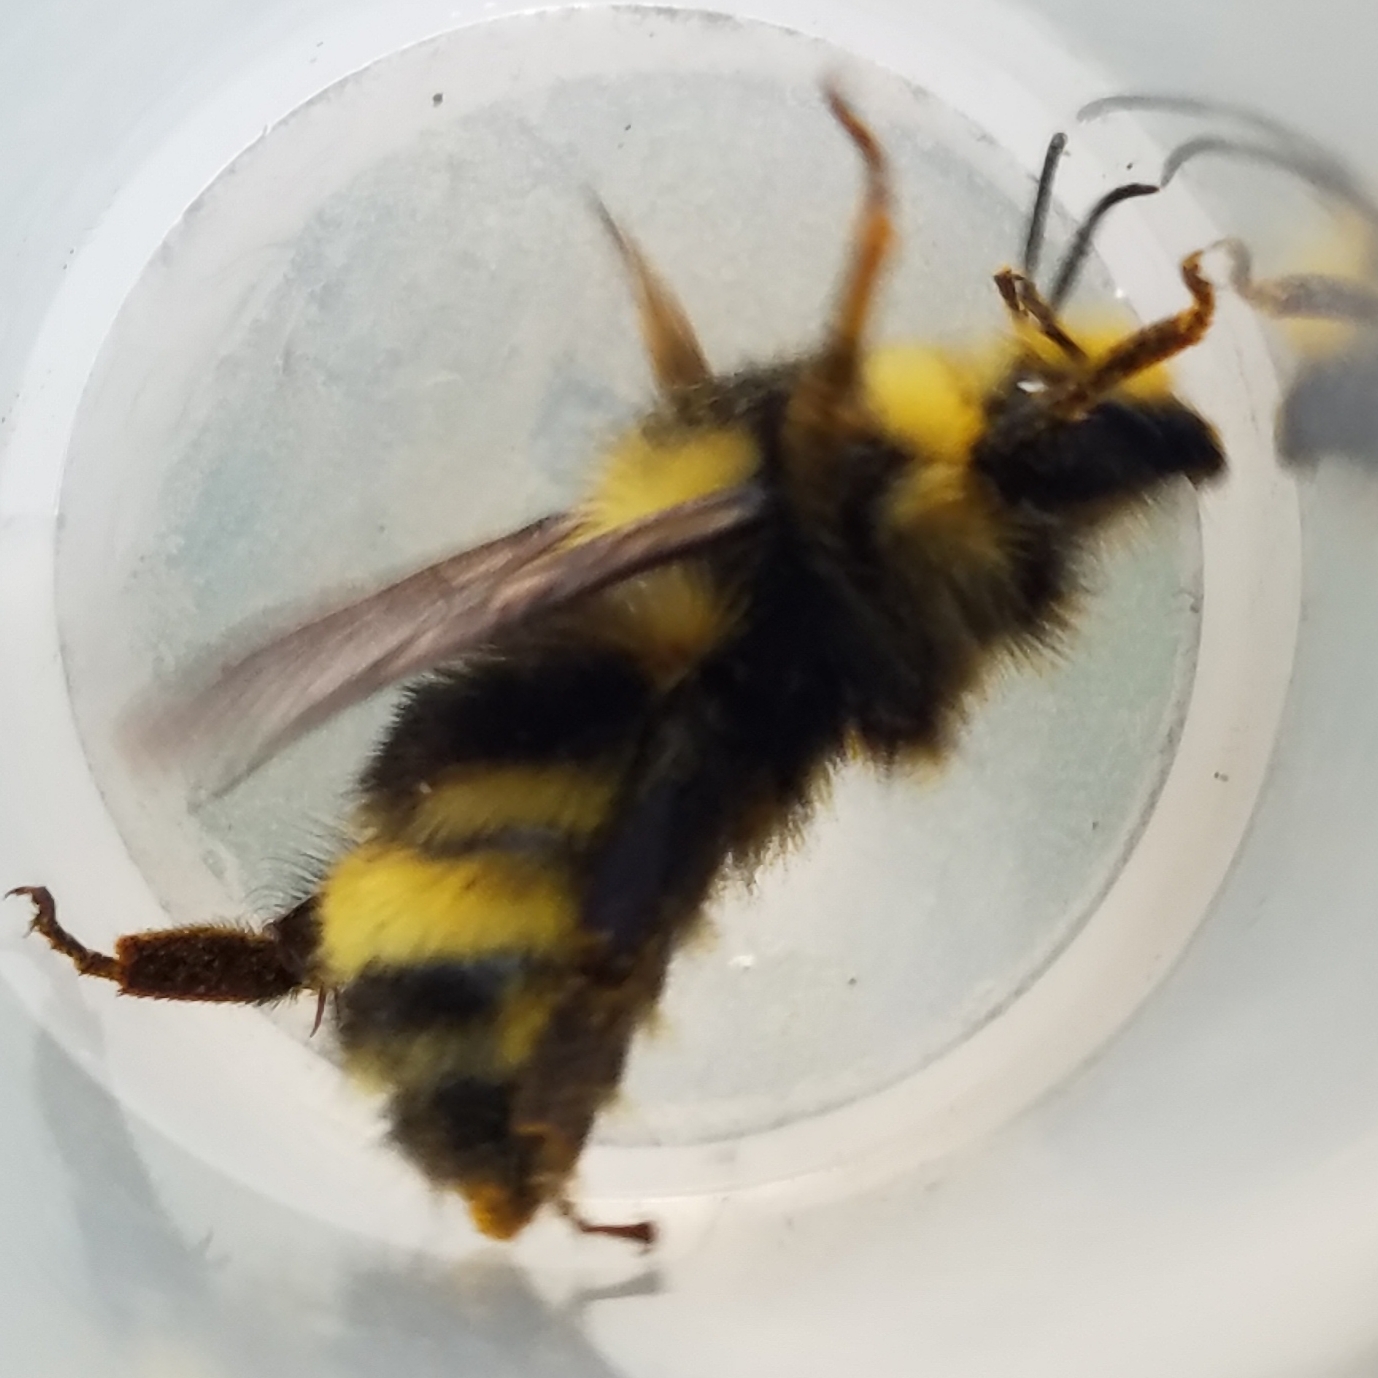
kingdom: Animalia
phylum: Arthropoda
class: Insecta
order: Hymenoptera
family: Apidae
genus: Bombus
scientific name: Bombus vandykei
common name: Van dyke bumble bee
